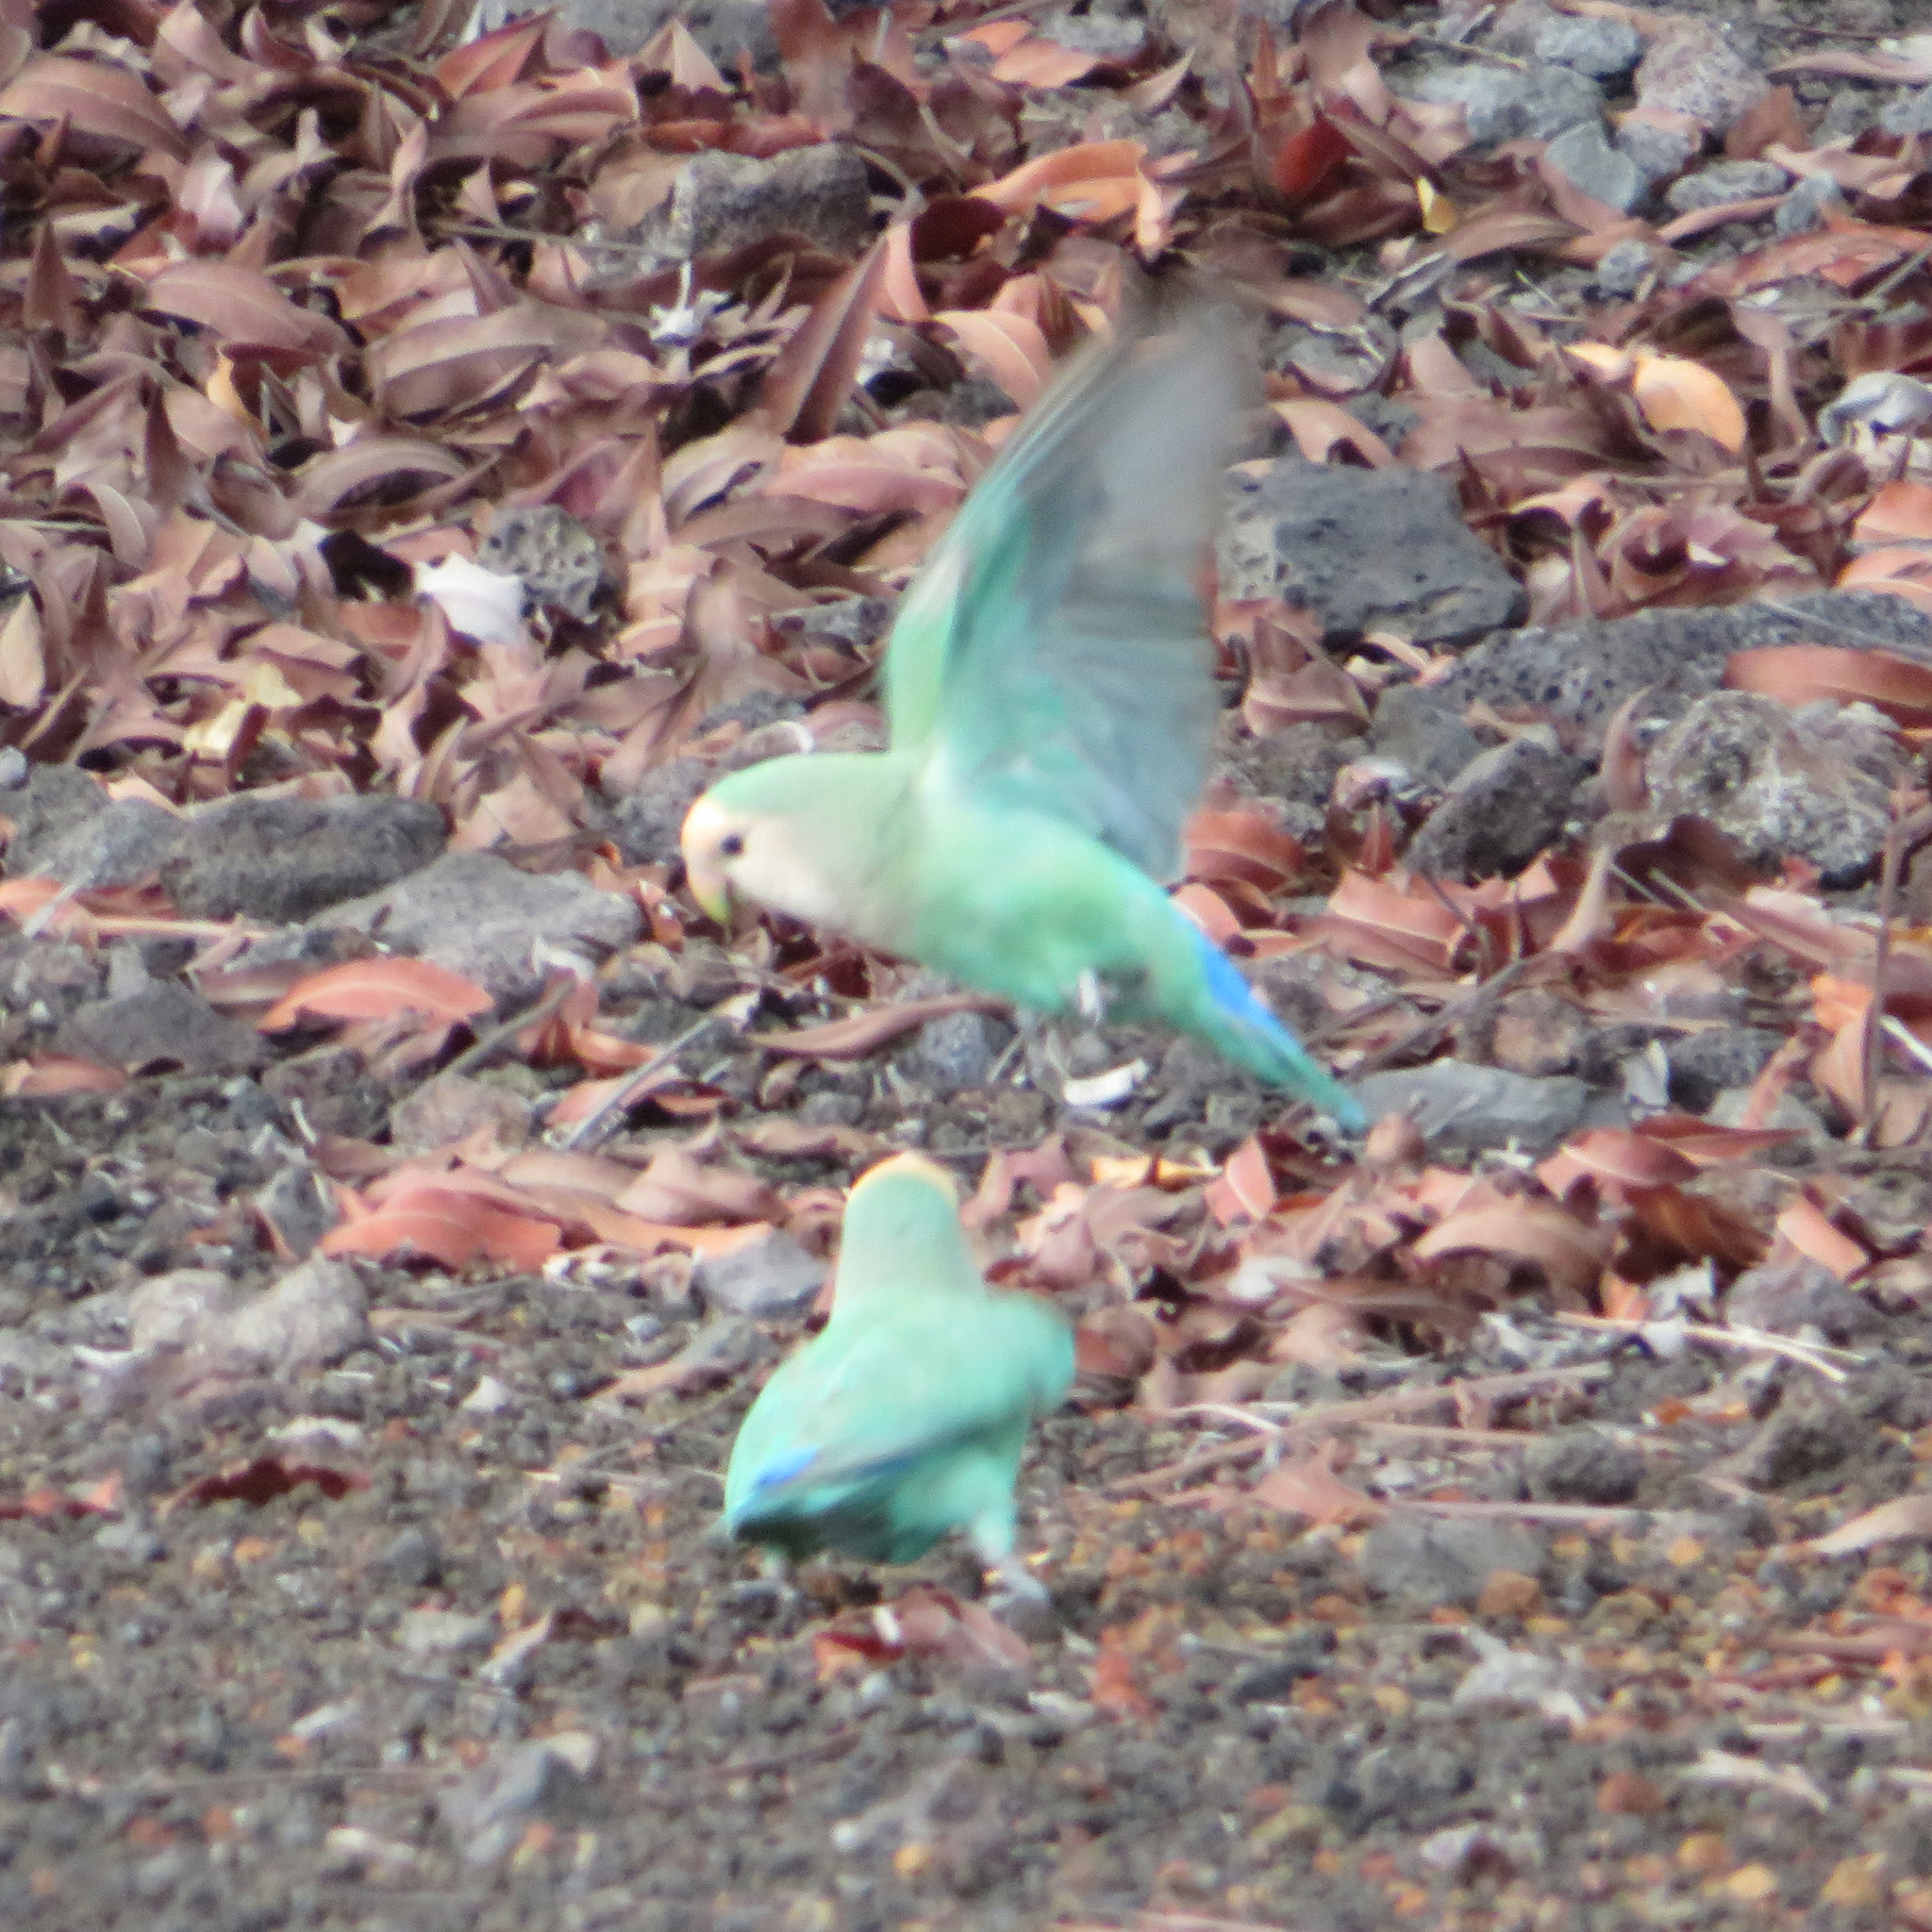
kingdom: Animalia
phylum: Chordata
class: Aves
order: Psittaciformes
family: Psittacidae
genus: Agapornis
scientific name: Agapornis roseicollis
